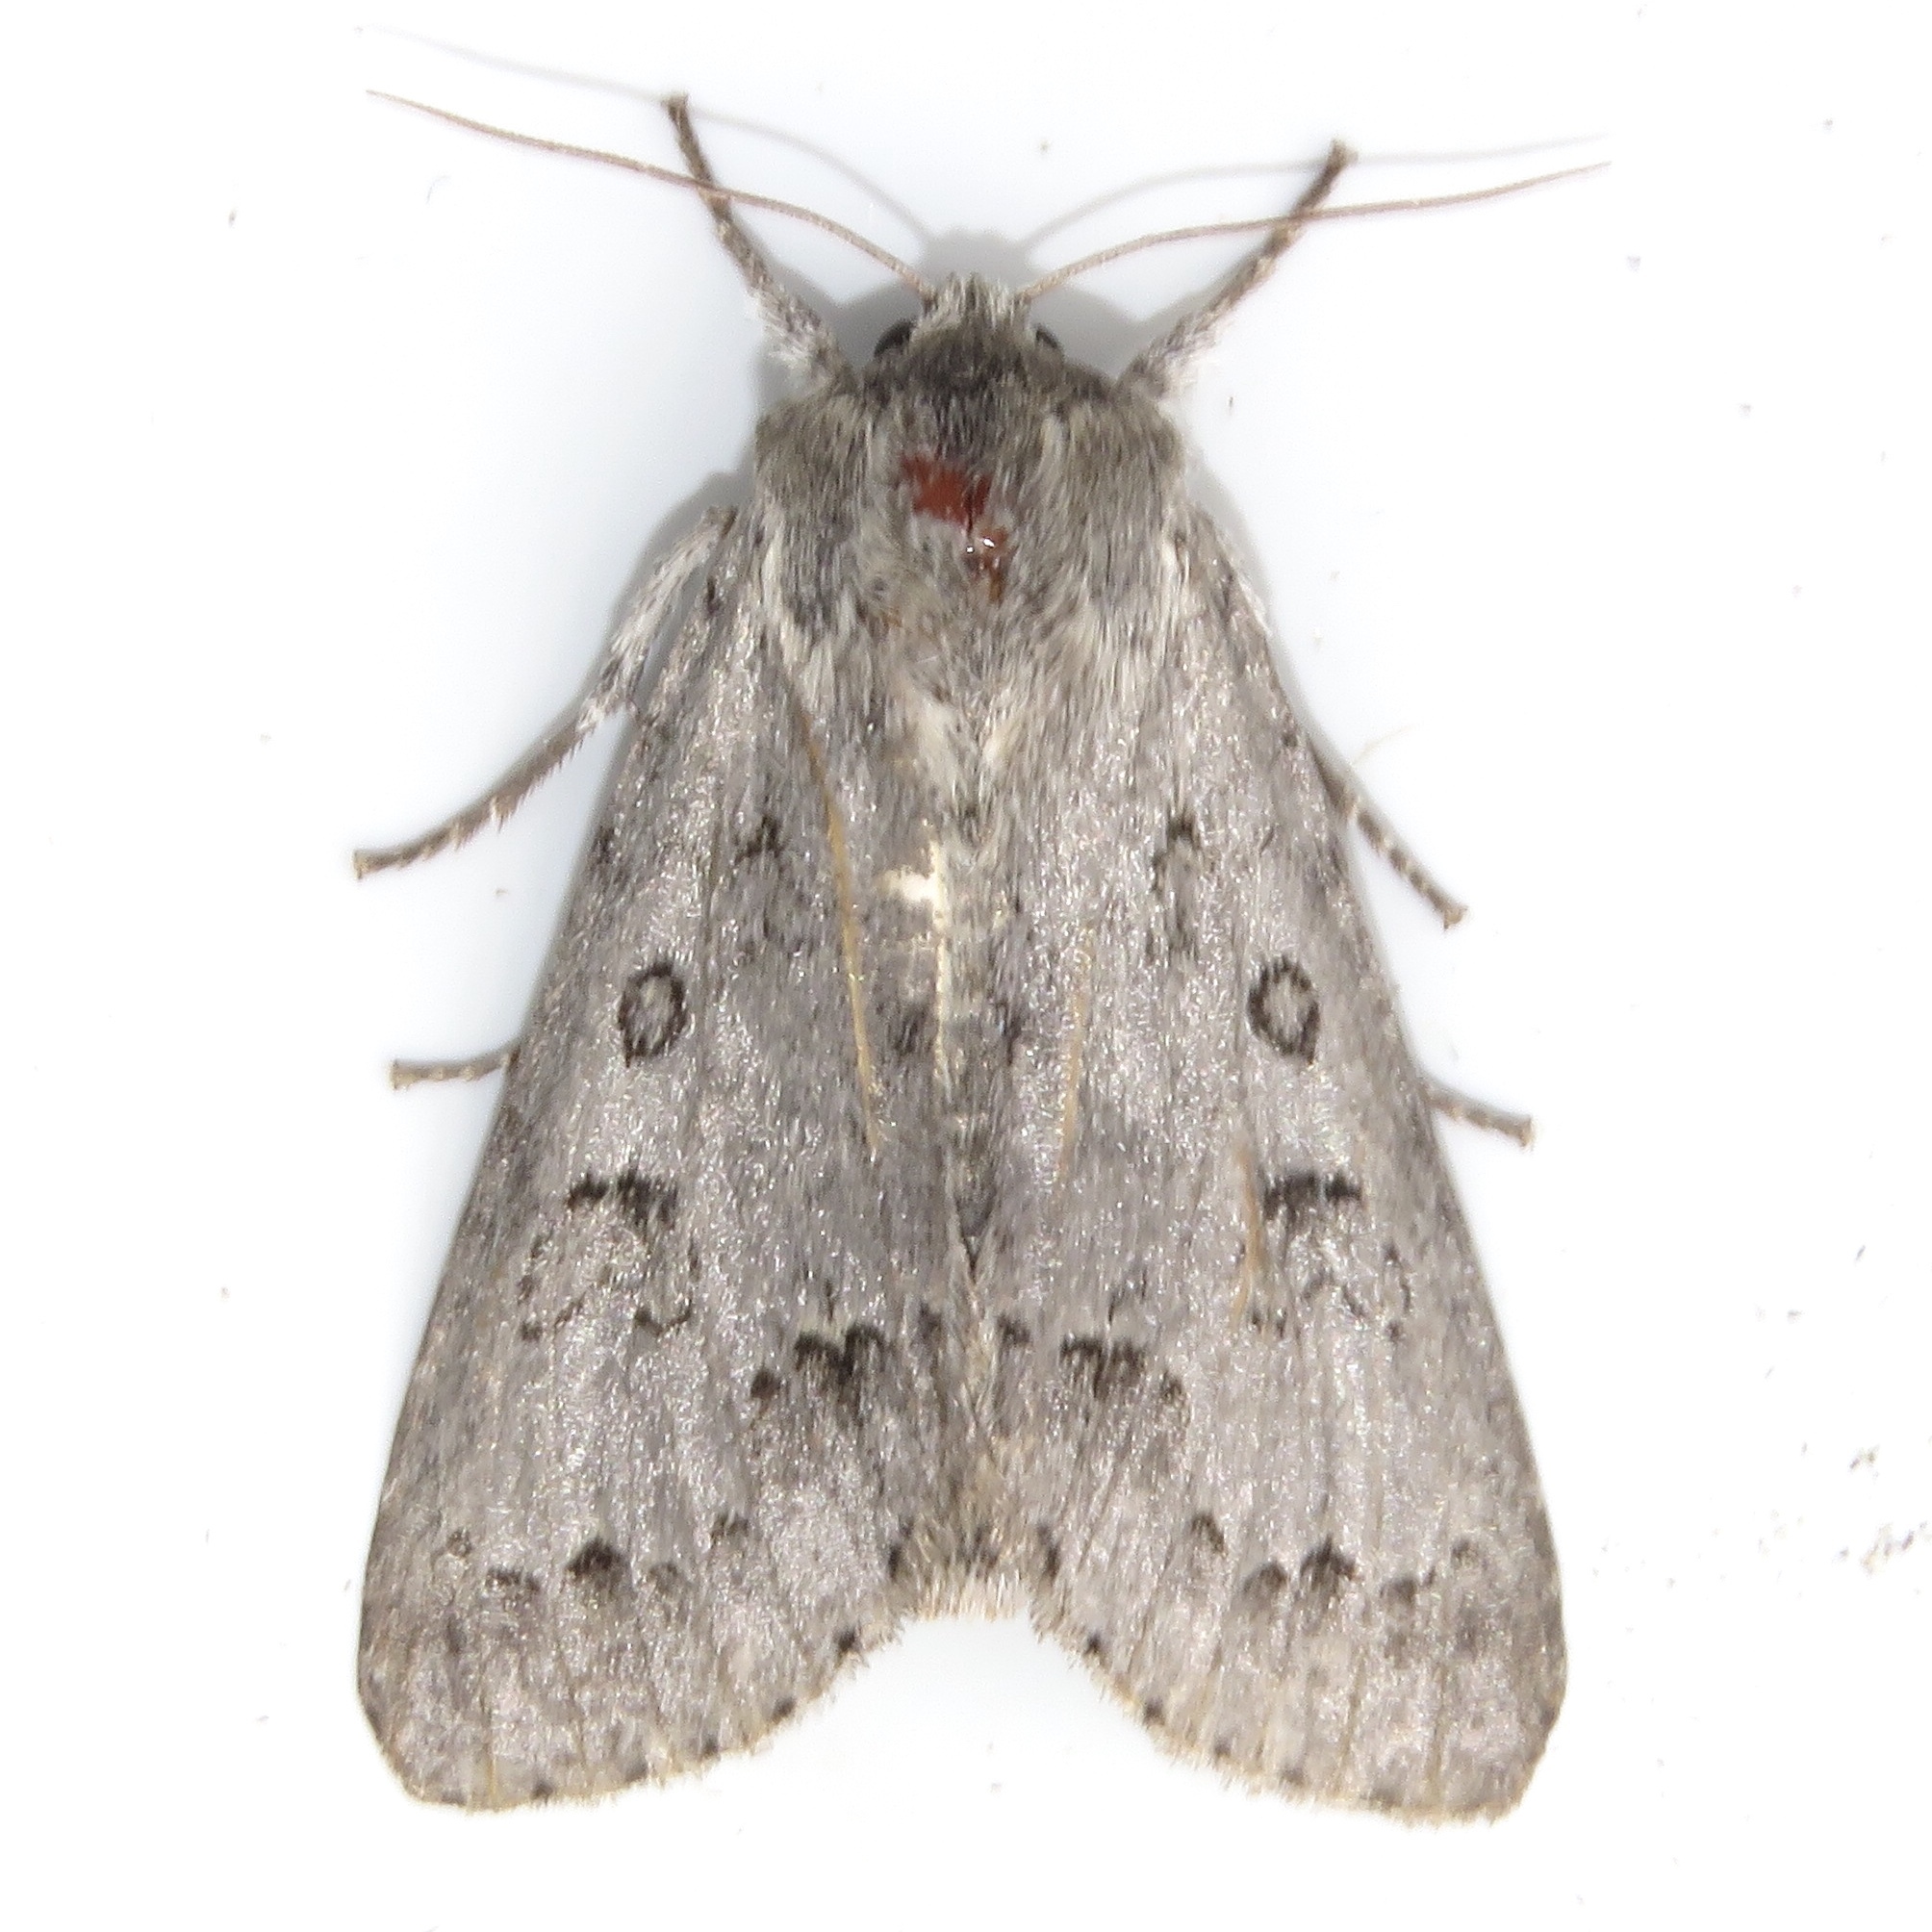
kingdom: Animalia
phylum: Arthropoda
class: Insecta
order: Lepidoptera
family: Noctuidae
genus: Acronicta
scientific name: Acronicta insita
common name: Large gray dagger
